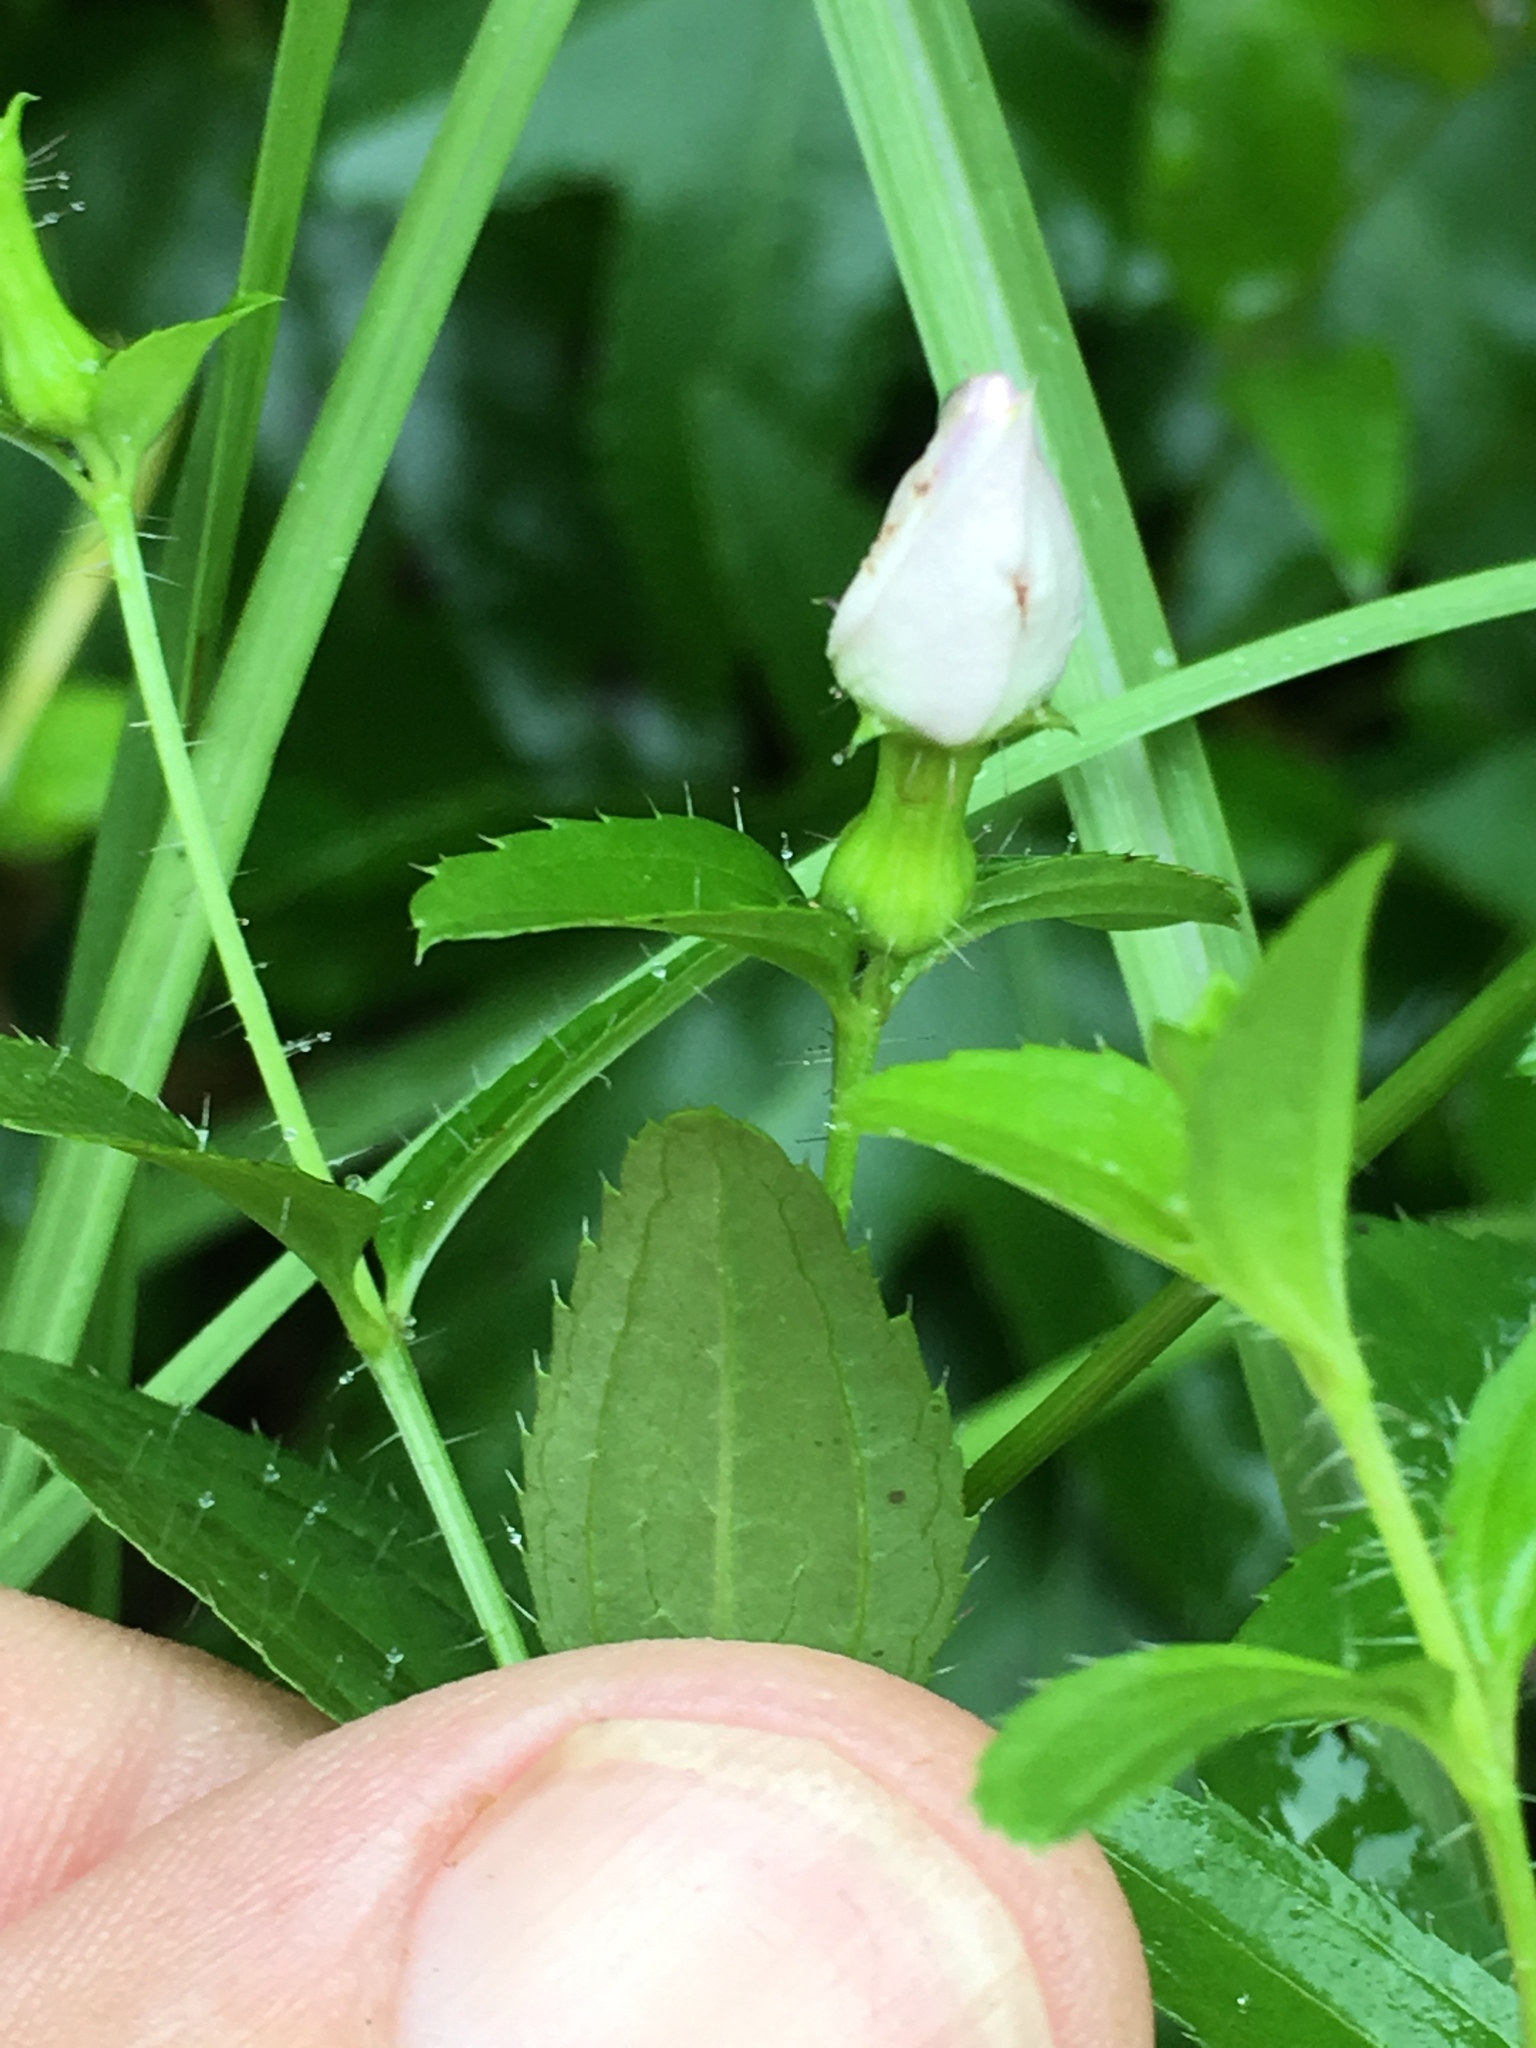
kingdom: Plantae
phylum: Tracheophyta
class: Magnoliopsida
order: Myrtales
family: Melastomataceae
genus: Rhexia
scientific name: Rhexia mariana
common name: Dull meadow-pitcher
